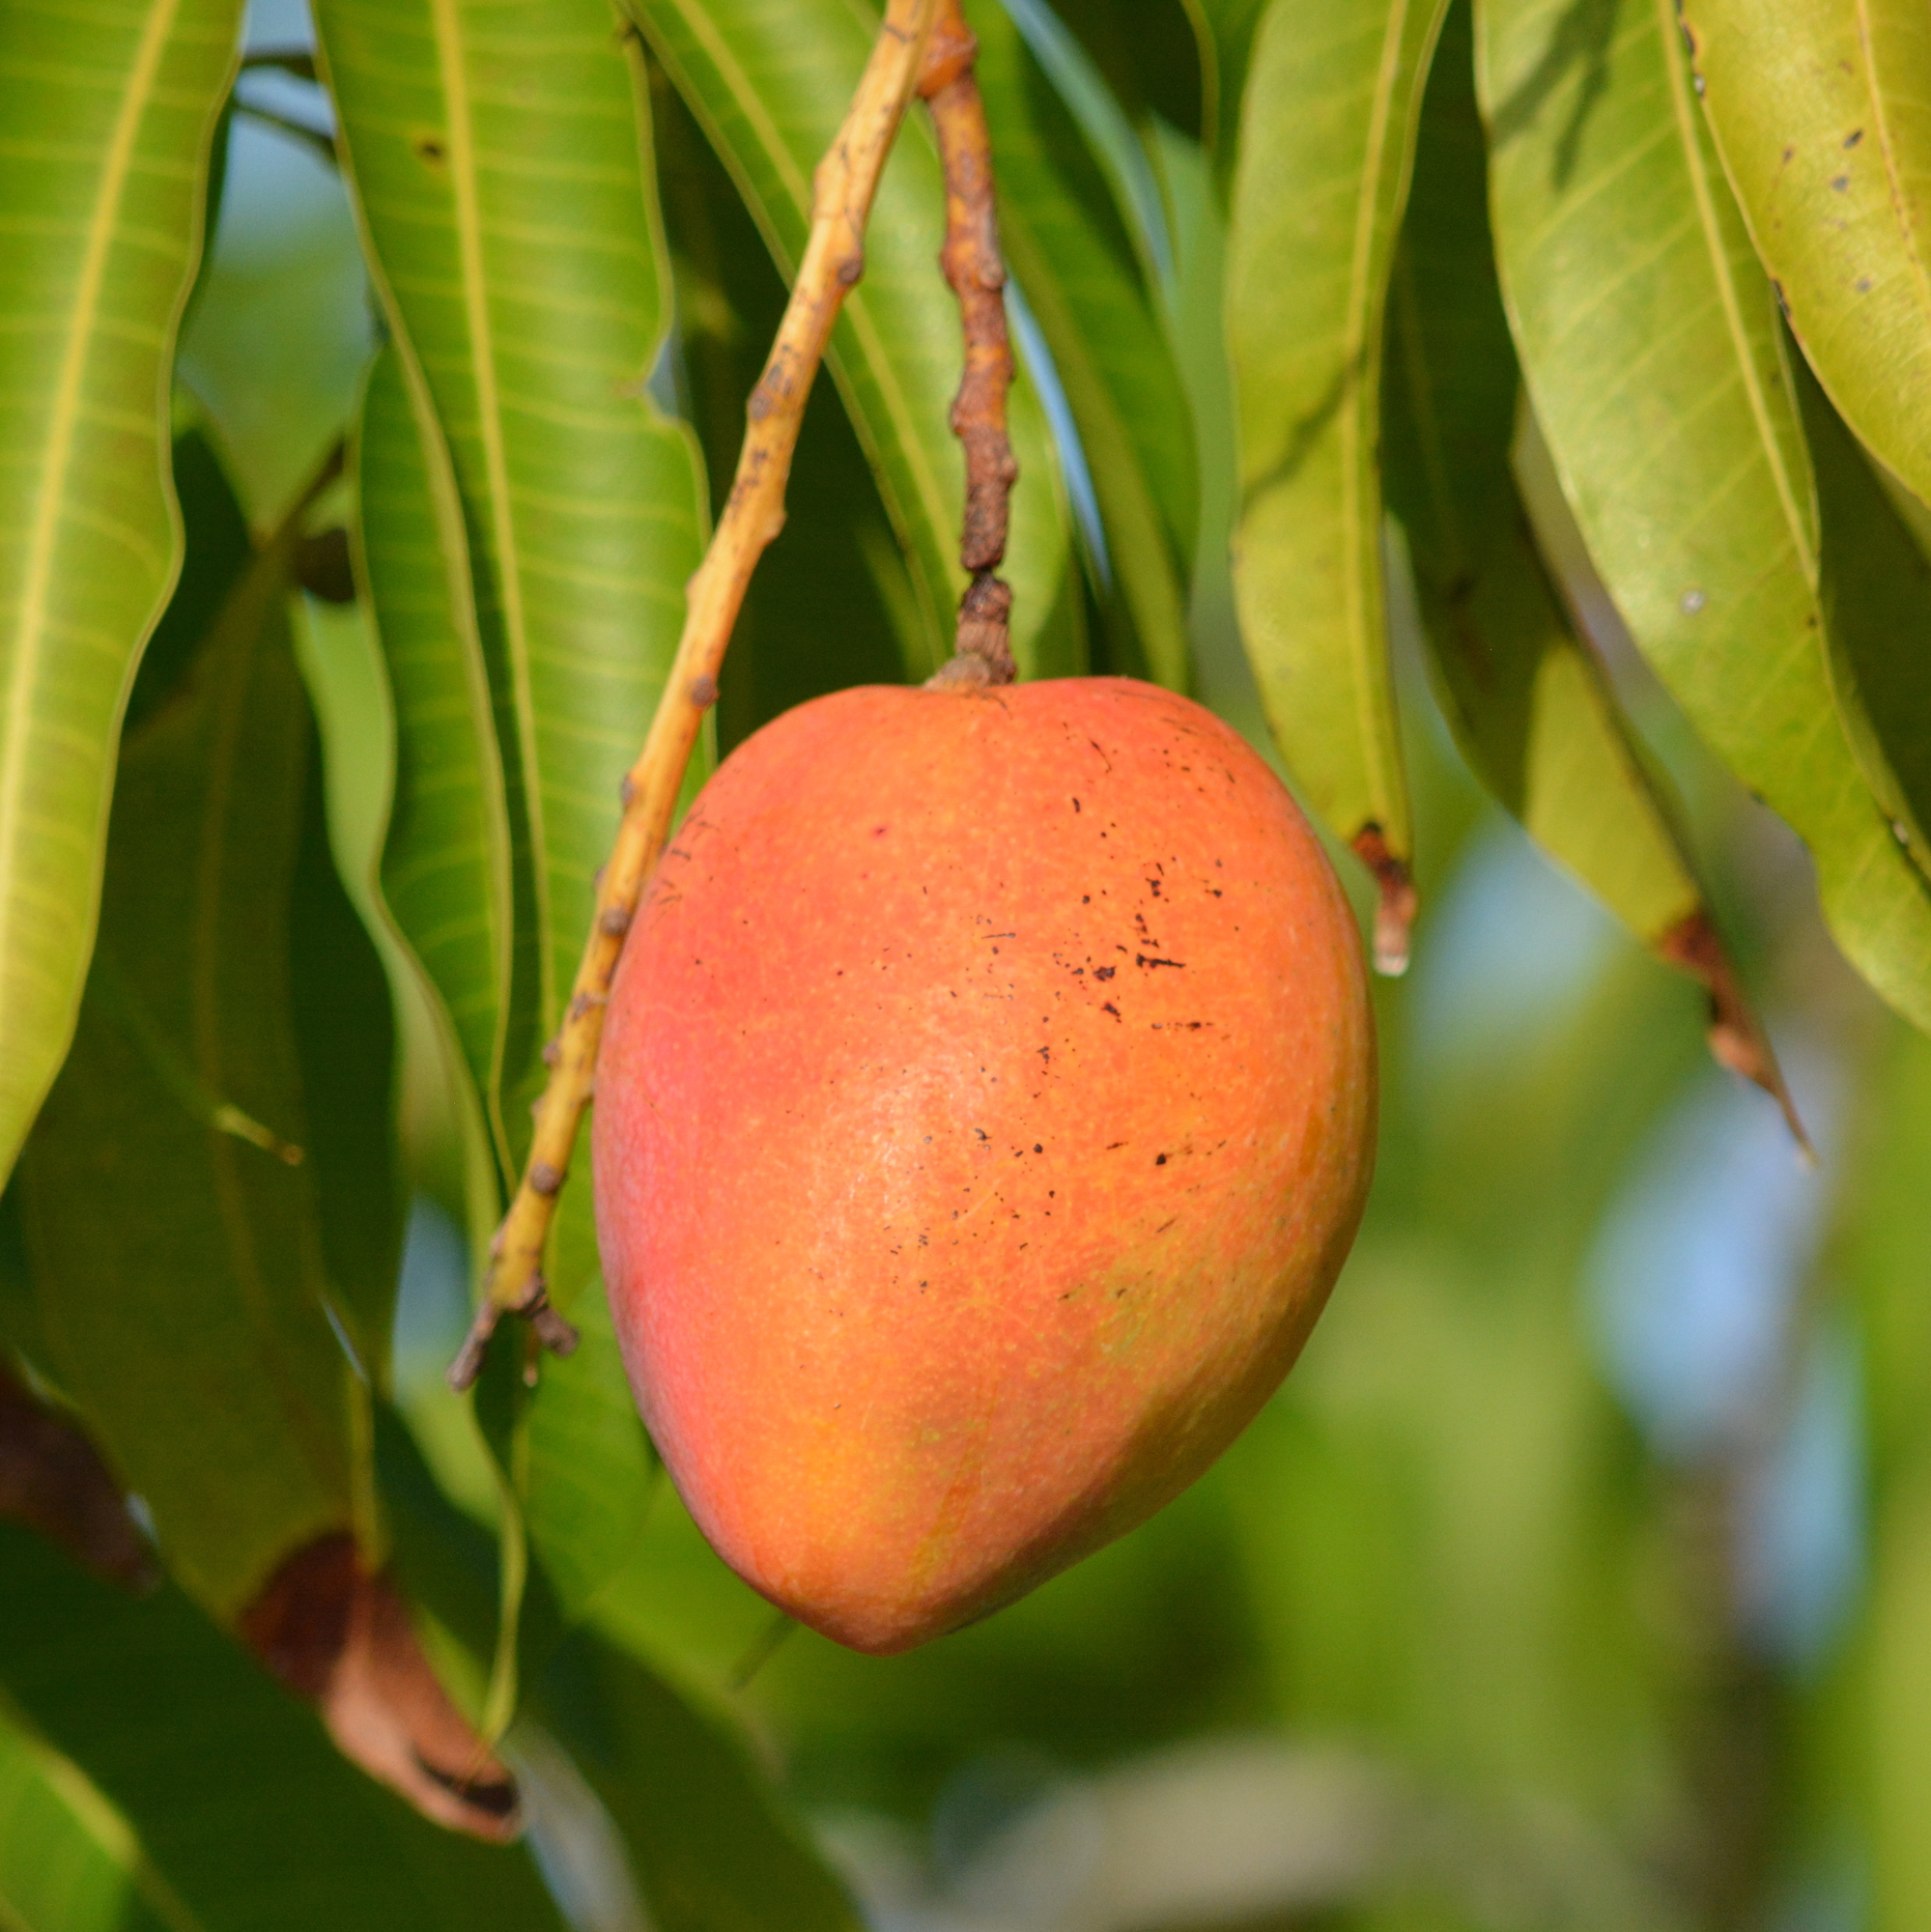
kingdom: Plantae
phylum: Tracheophyta
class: Magnoliopsida
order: Sapindales
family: Anacardiaceae
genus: Mangifera
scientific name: Mangifera indica
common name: Mango
